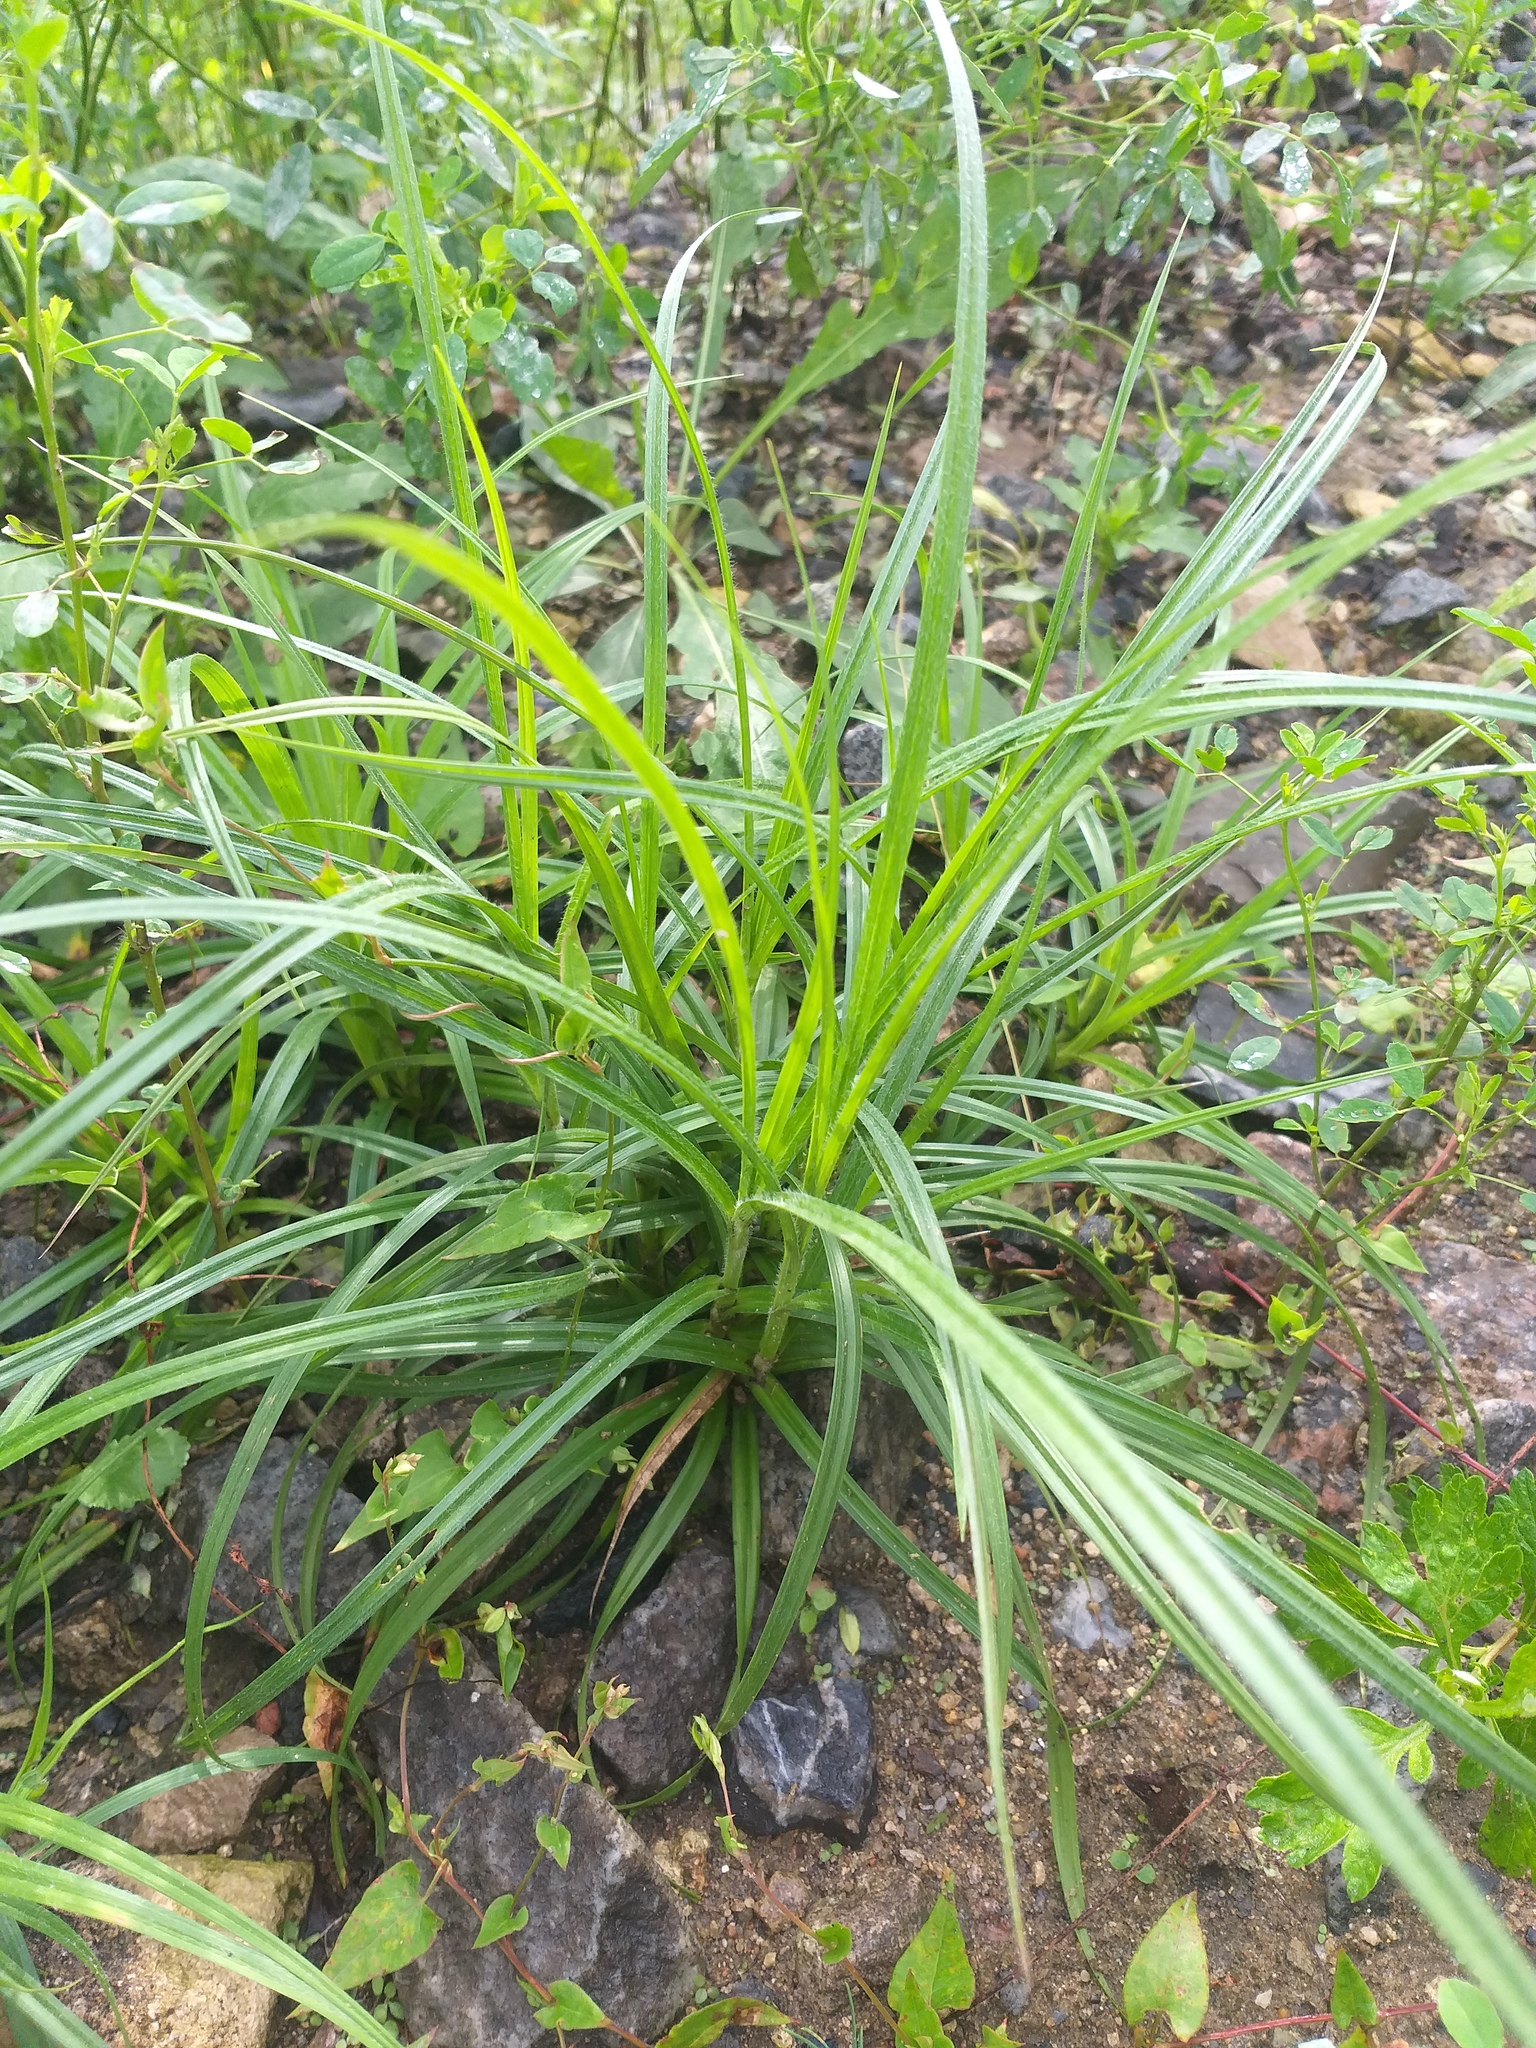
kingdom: Plantae
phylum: Tracheophyta
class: Liliopsida
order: Poales
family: Cyperaceae
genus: Carex
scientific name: Carex hirta
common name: Hairy sedge
